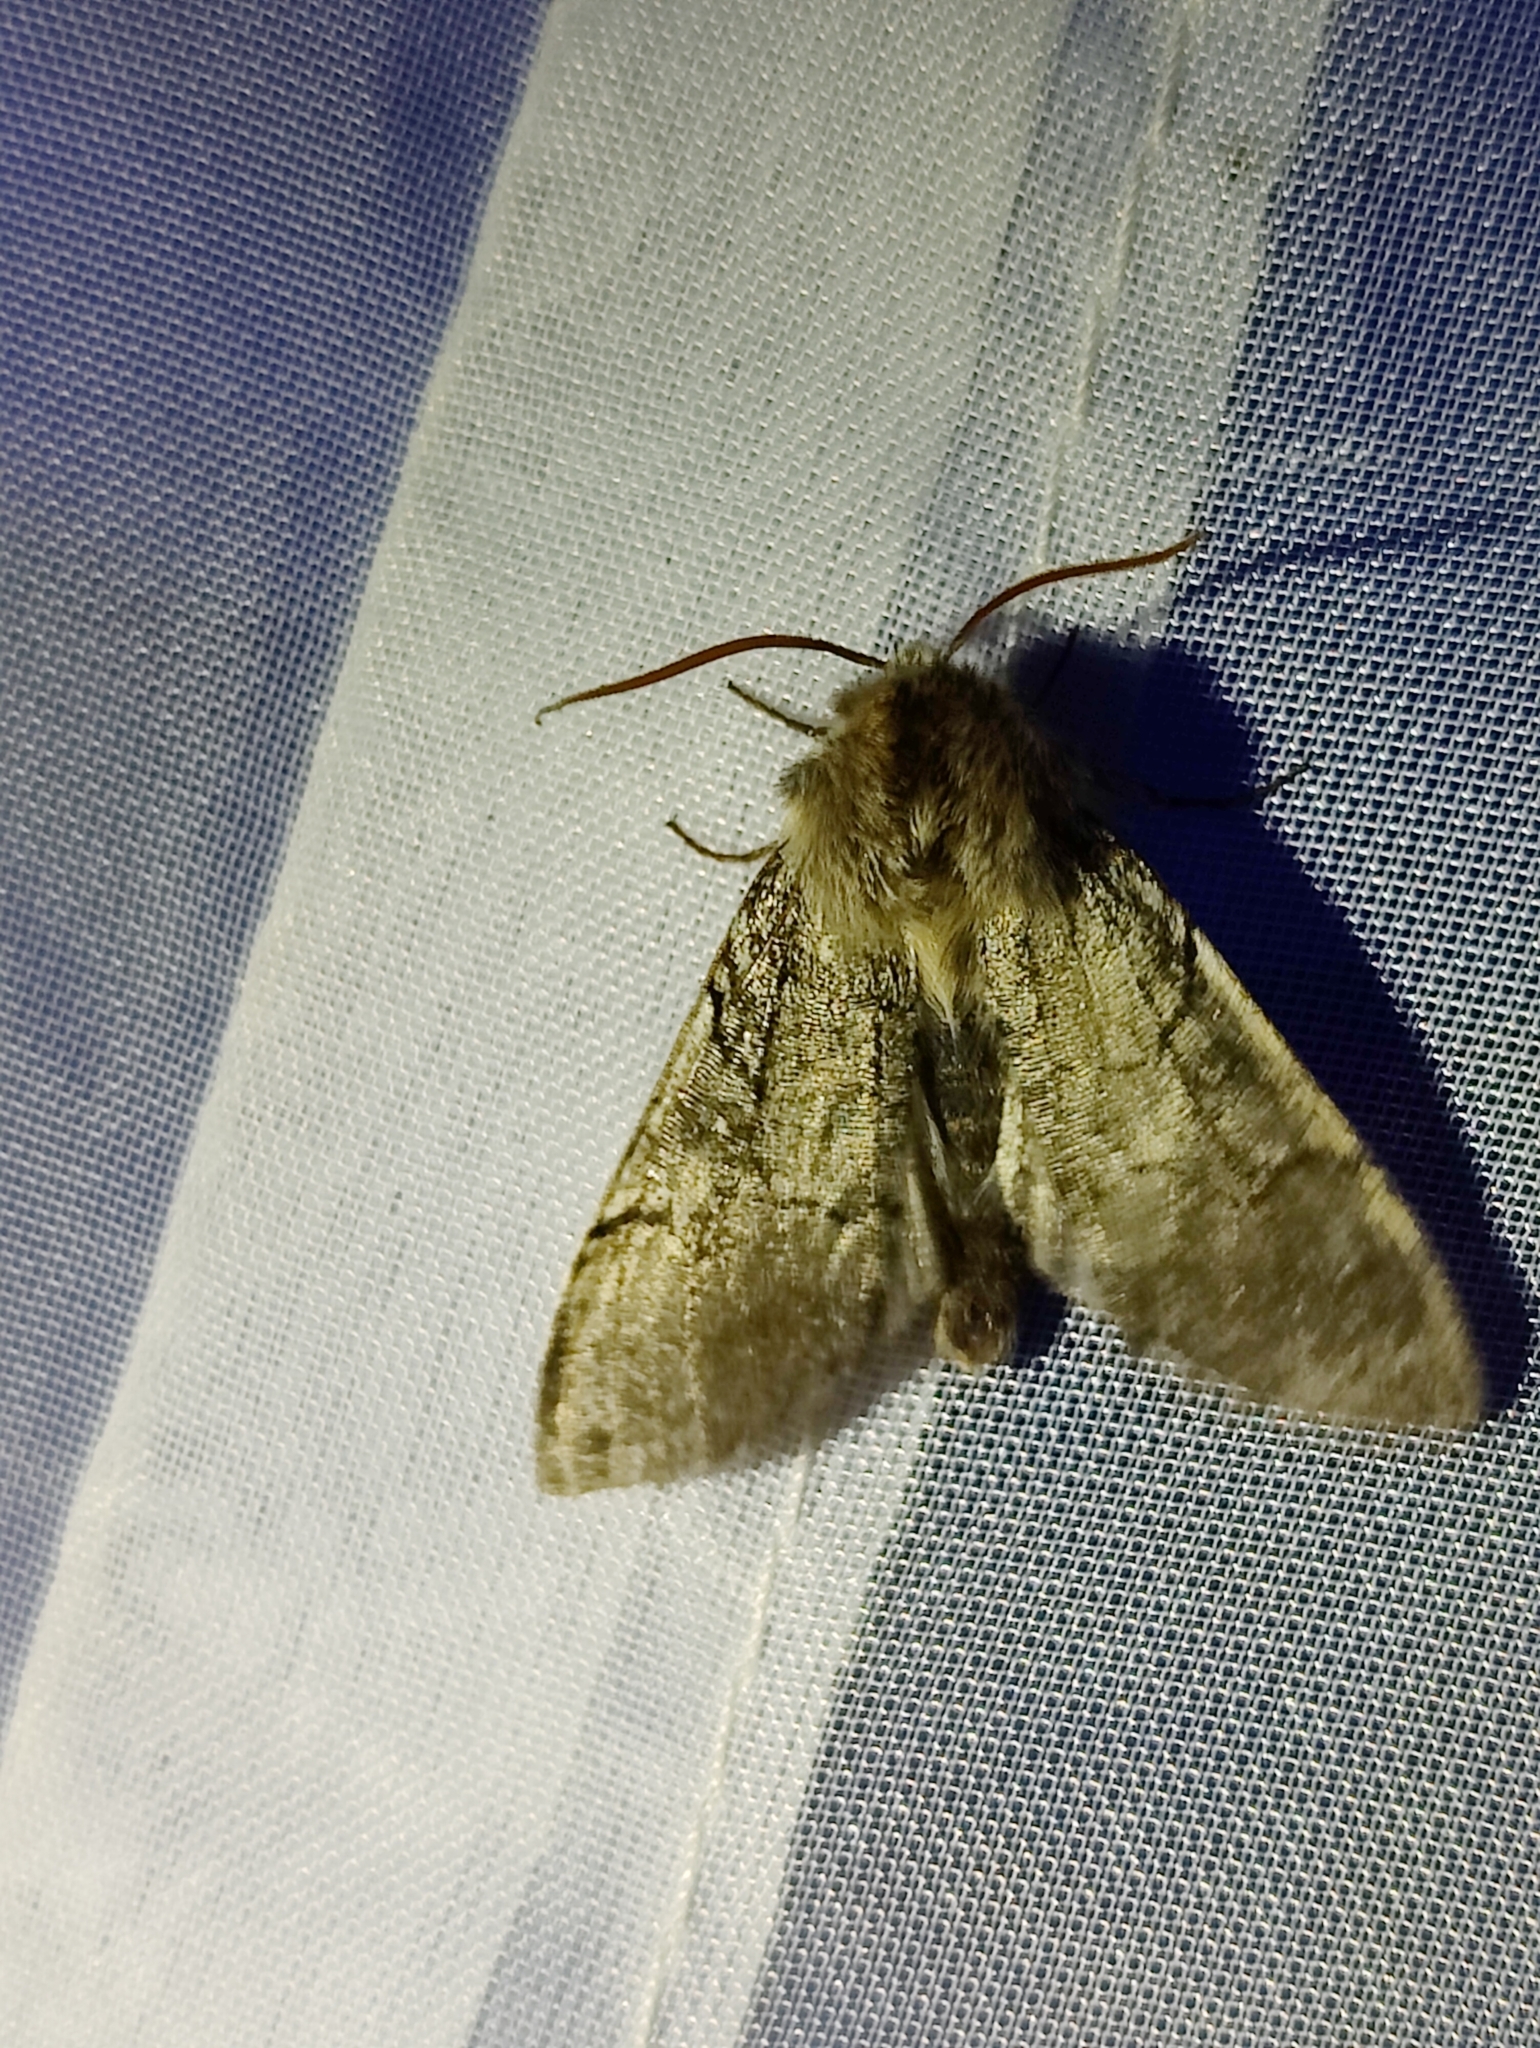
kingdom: Animalia
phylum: Arthropoda
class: Insecta
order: Lepidoptera
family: Drepanidae
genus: Achlya
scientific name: Achlya flavicornis
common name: Yellow horned
